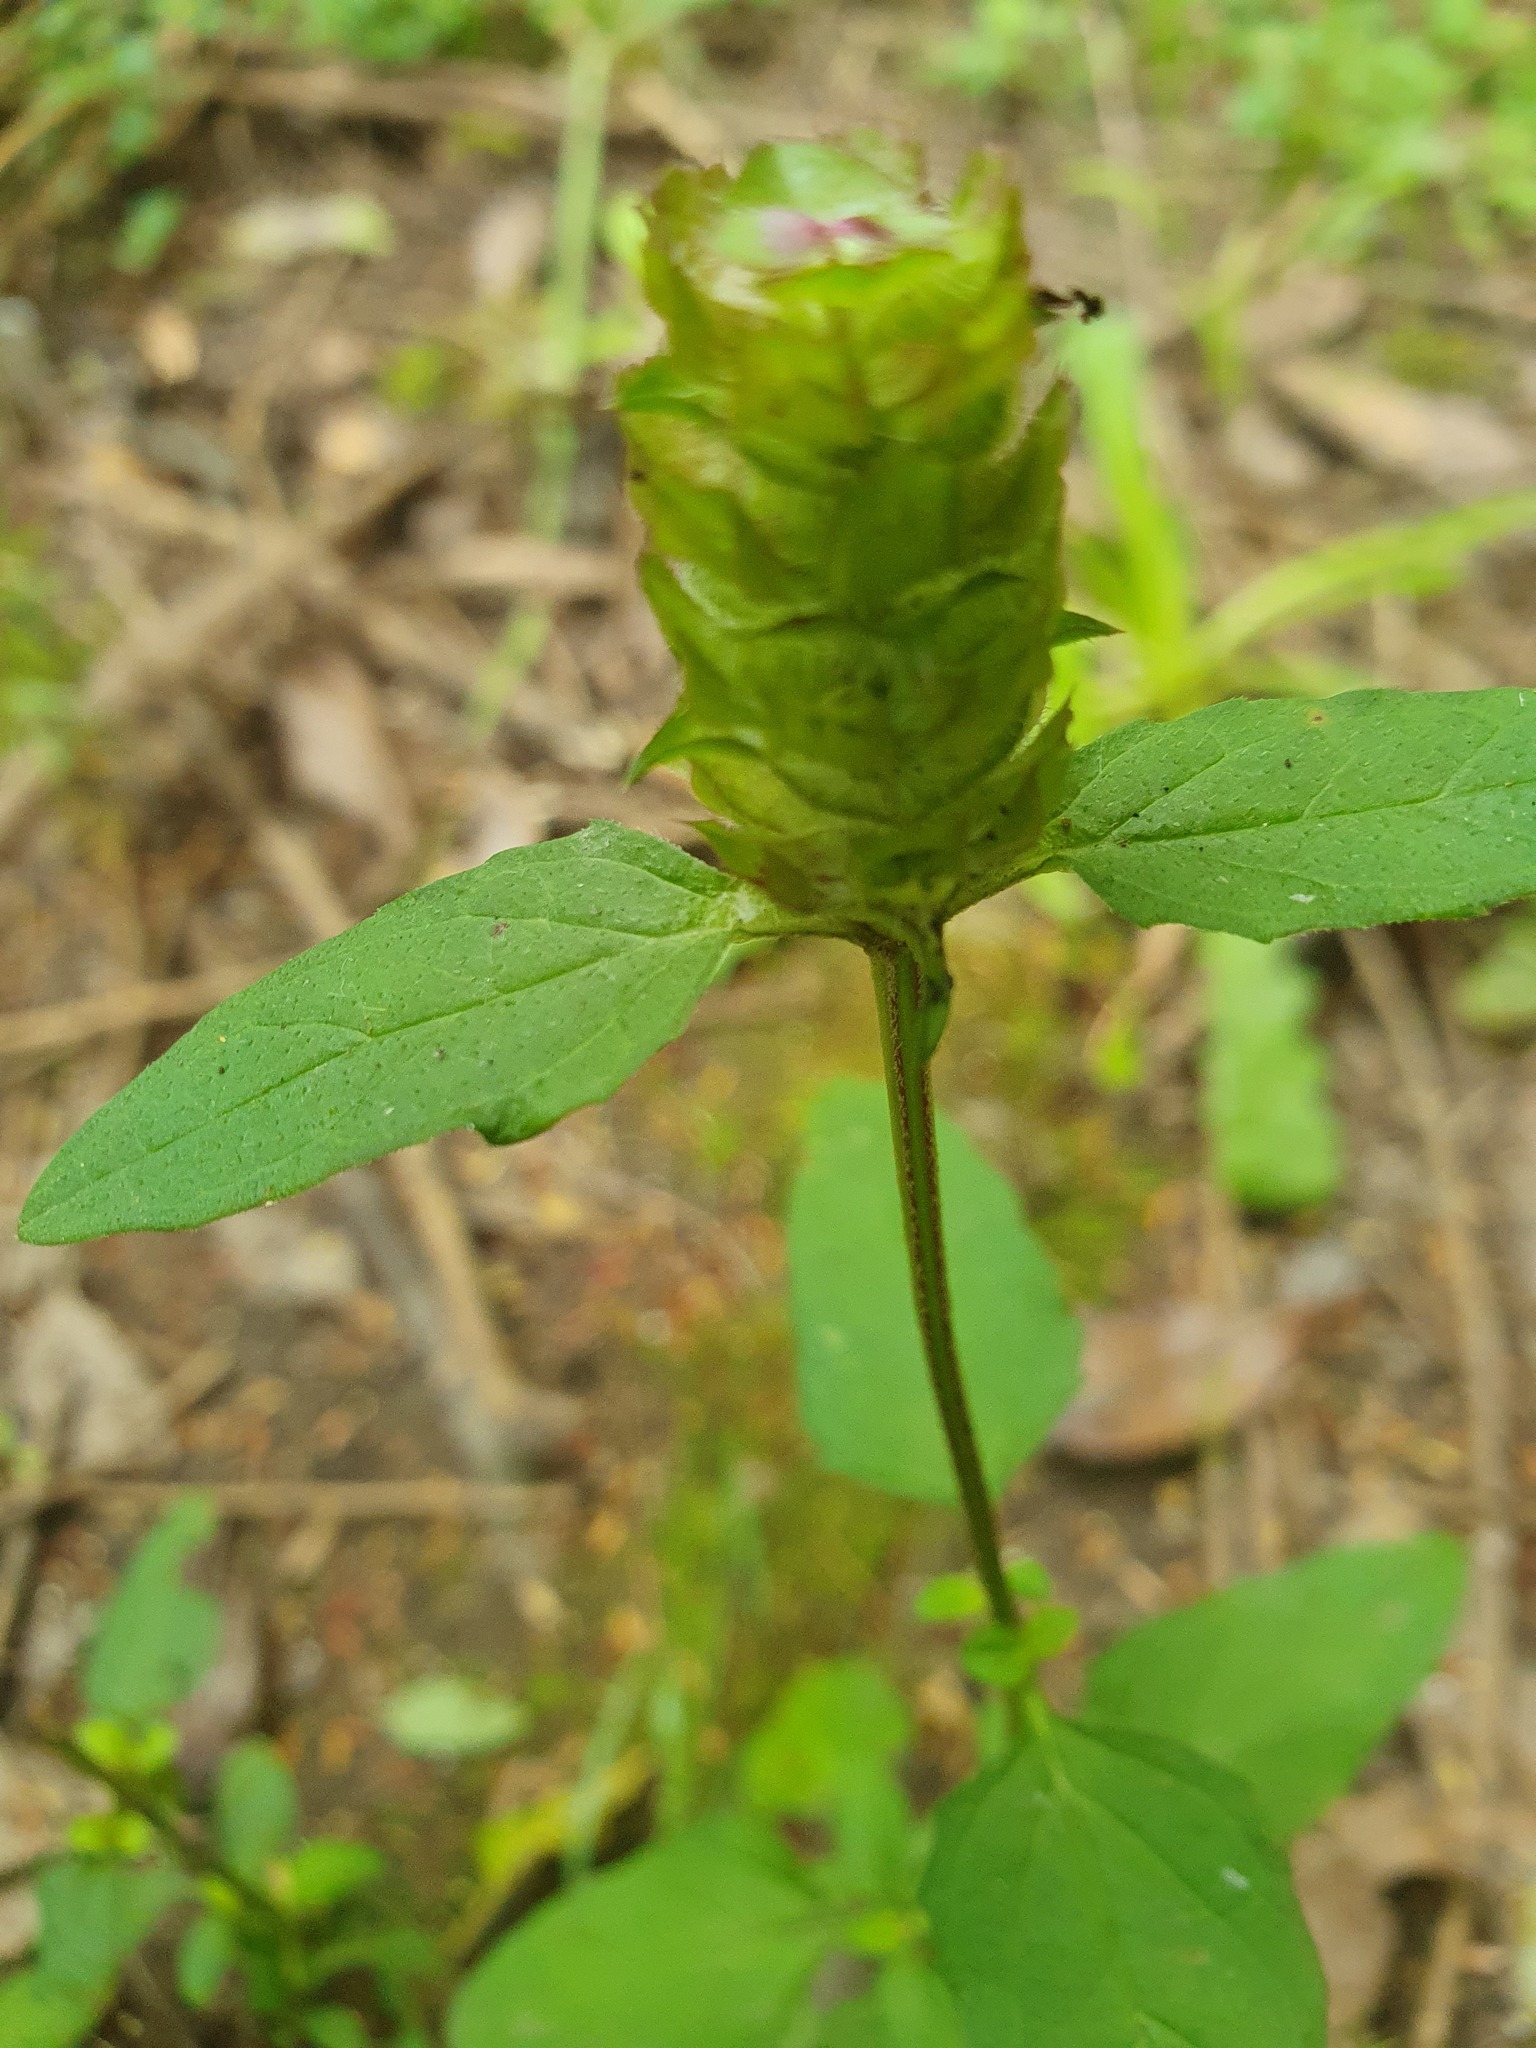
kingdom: Plantae
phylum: Tracheophyta
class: Magnoliopsida
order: Lamiales
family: Lamiaceae
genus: Prunella
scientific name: Prunella vulgaris
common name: Heal-all
